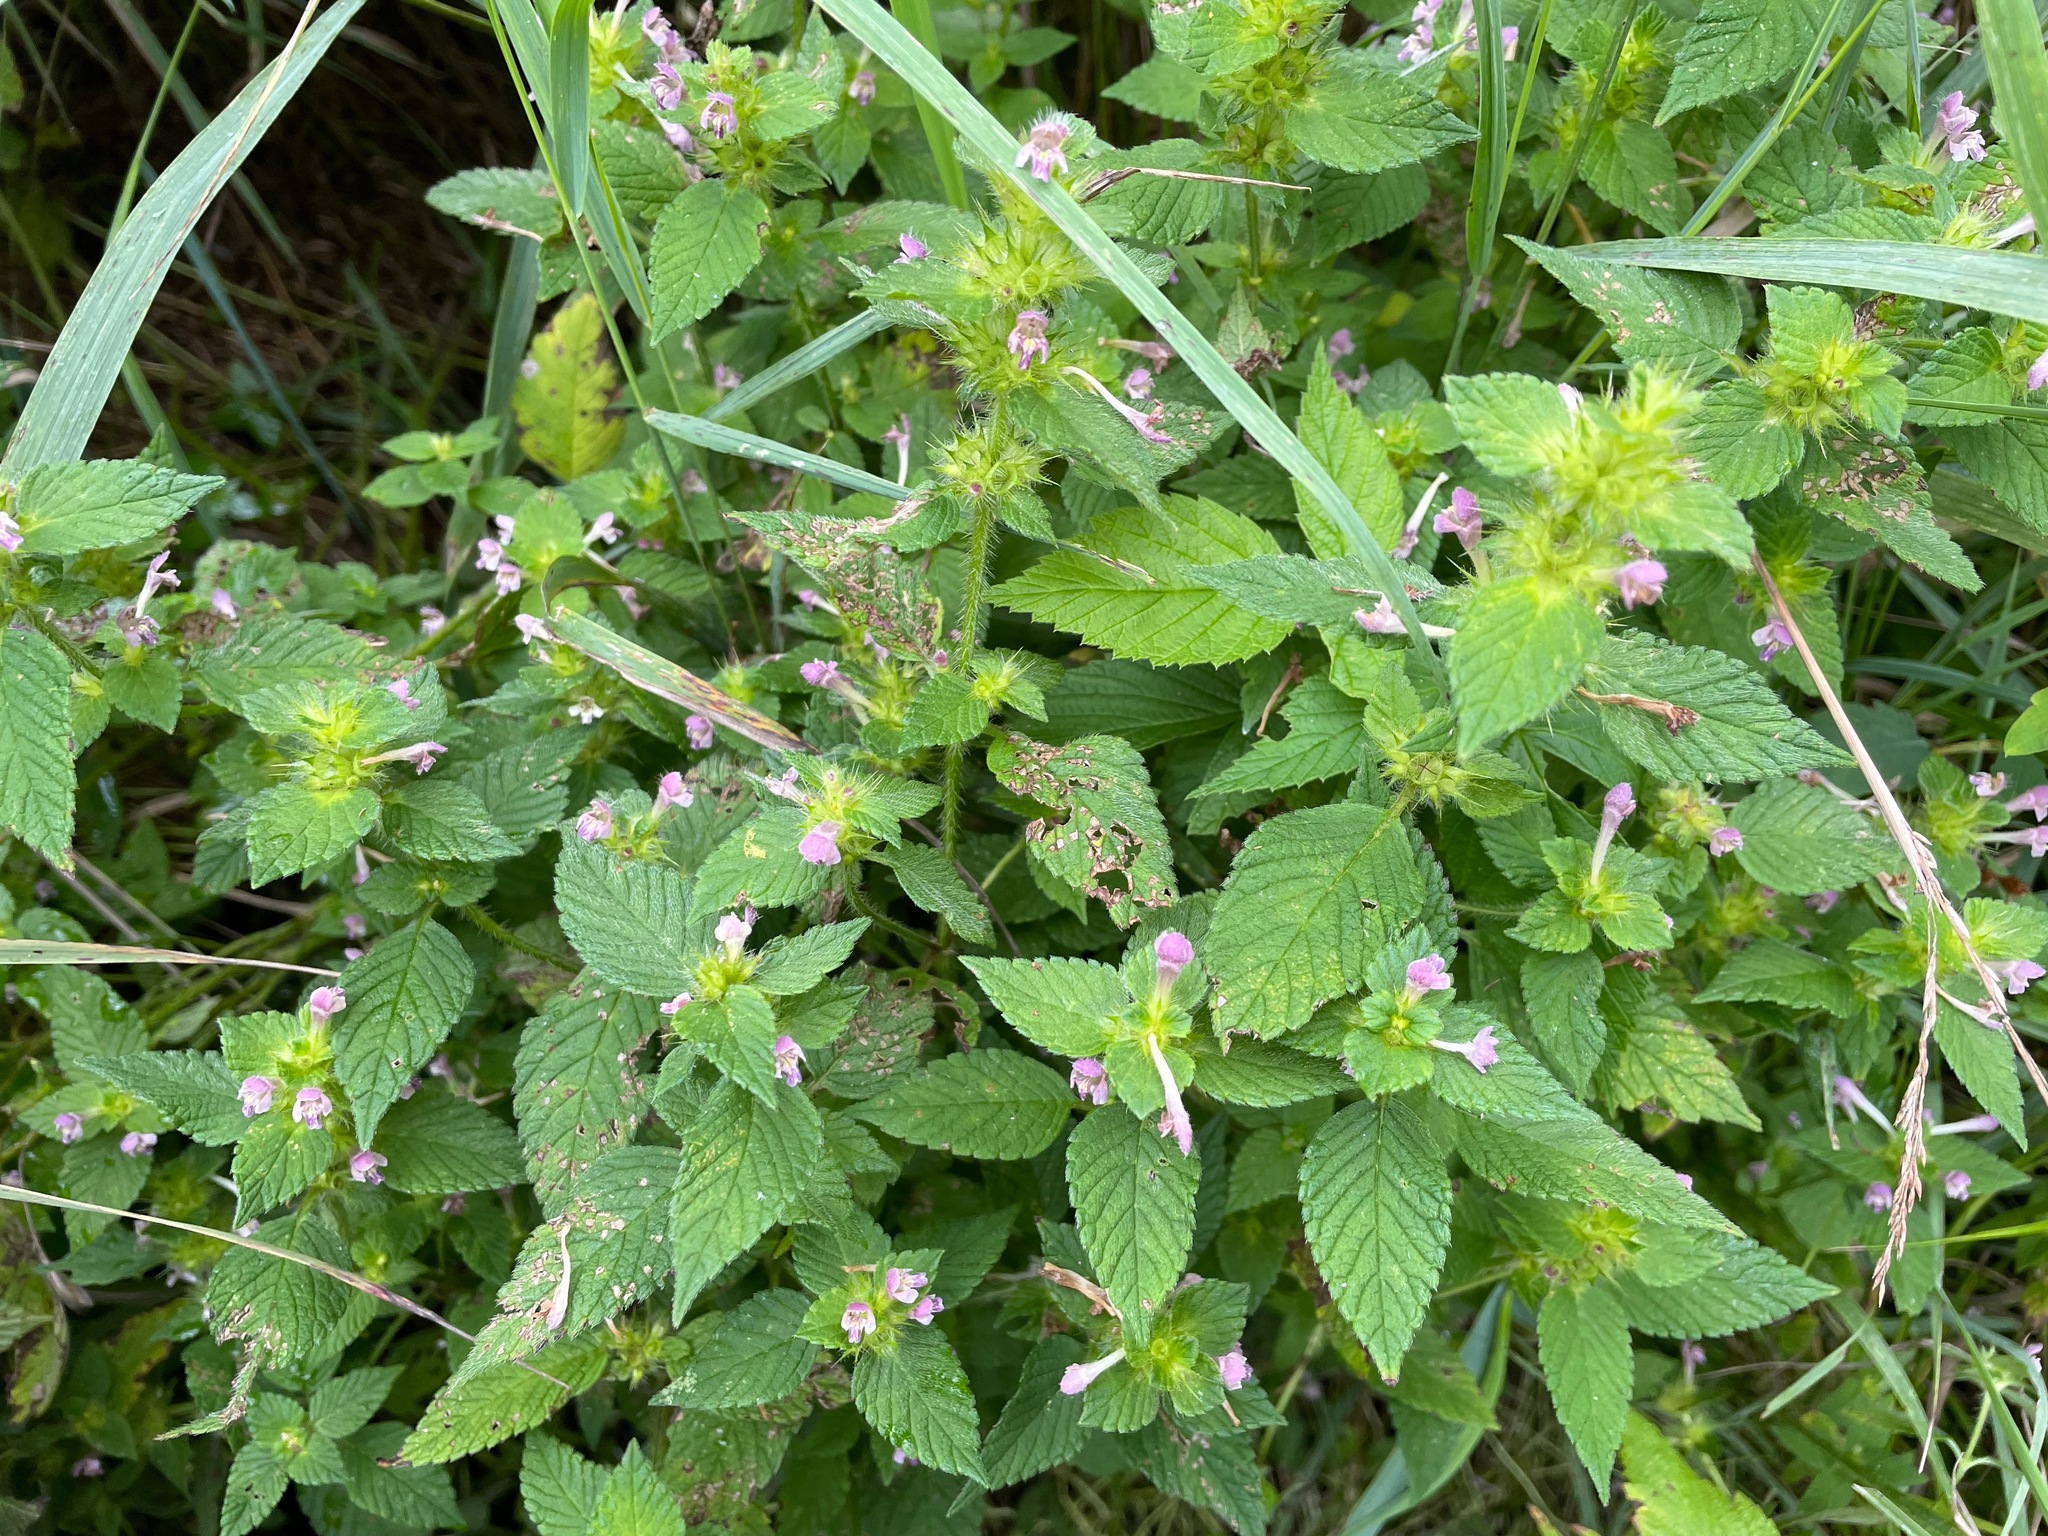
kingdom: Plantae
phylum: Tracheophyta
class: Magnoliopsida
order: Lamiales
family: Lamiaceae
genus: Galeopsis
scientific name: Galeopsis bifida
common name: Bifid hemp-nettle
